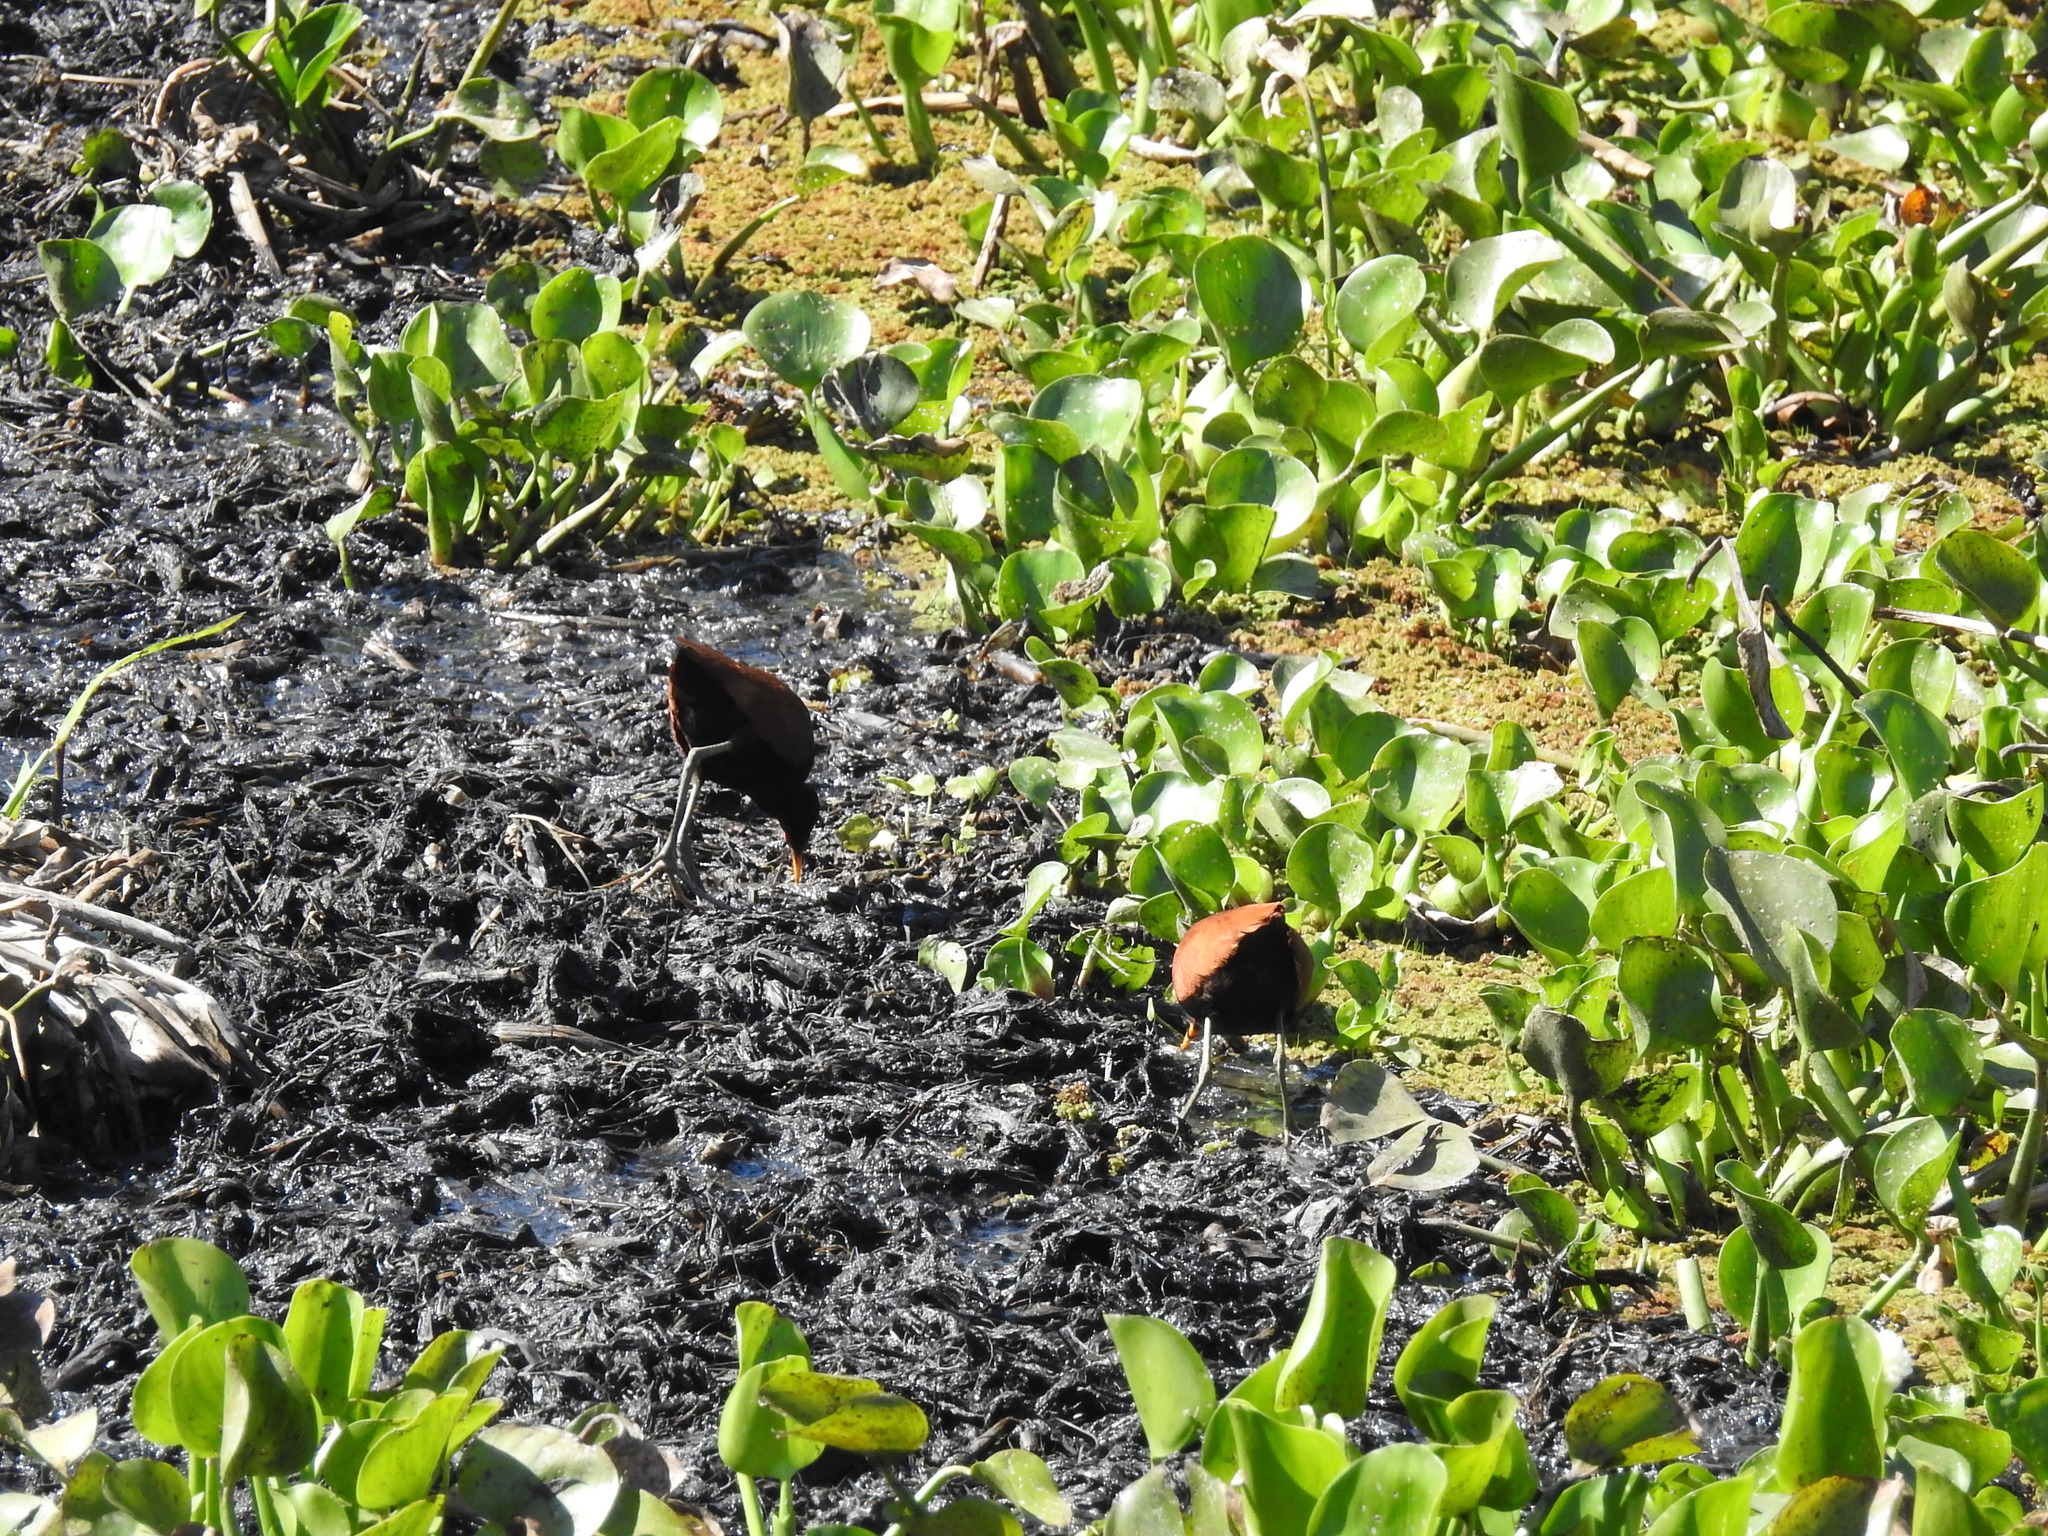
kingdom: Animalia
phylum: Chordata
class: Aves
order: Charadriiformes
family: Jacanidae
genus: Jacana
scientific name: Jacana jacana
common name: Wattled jacana
